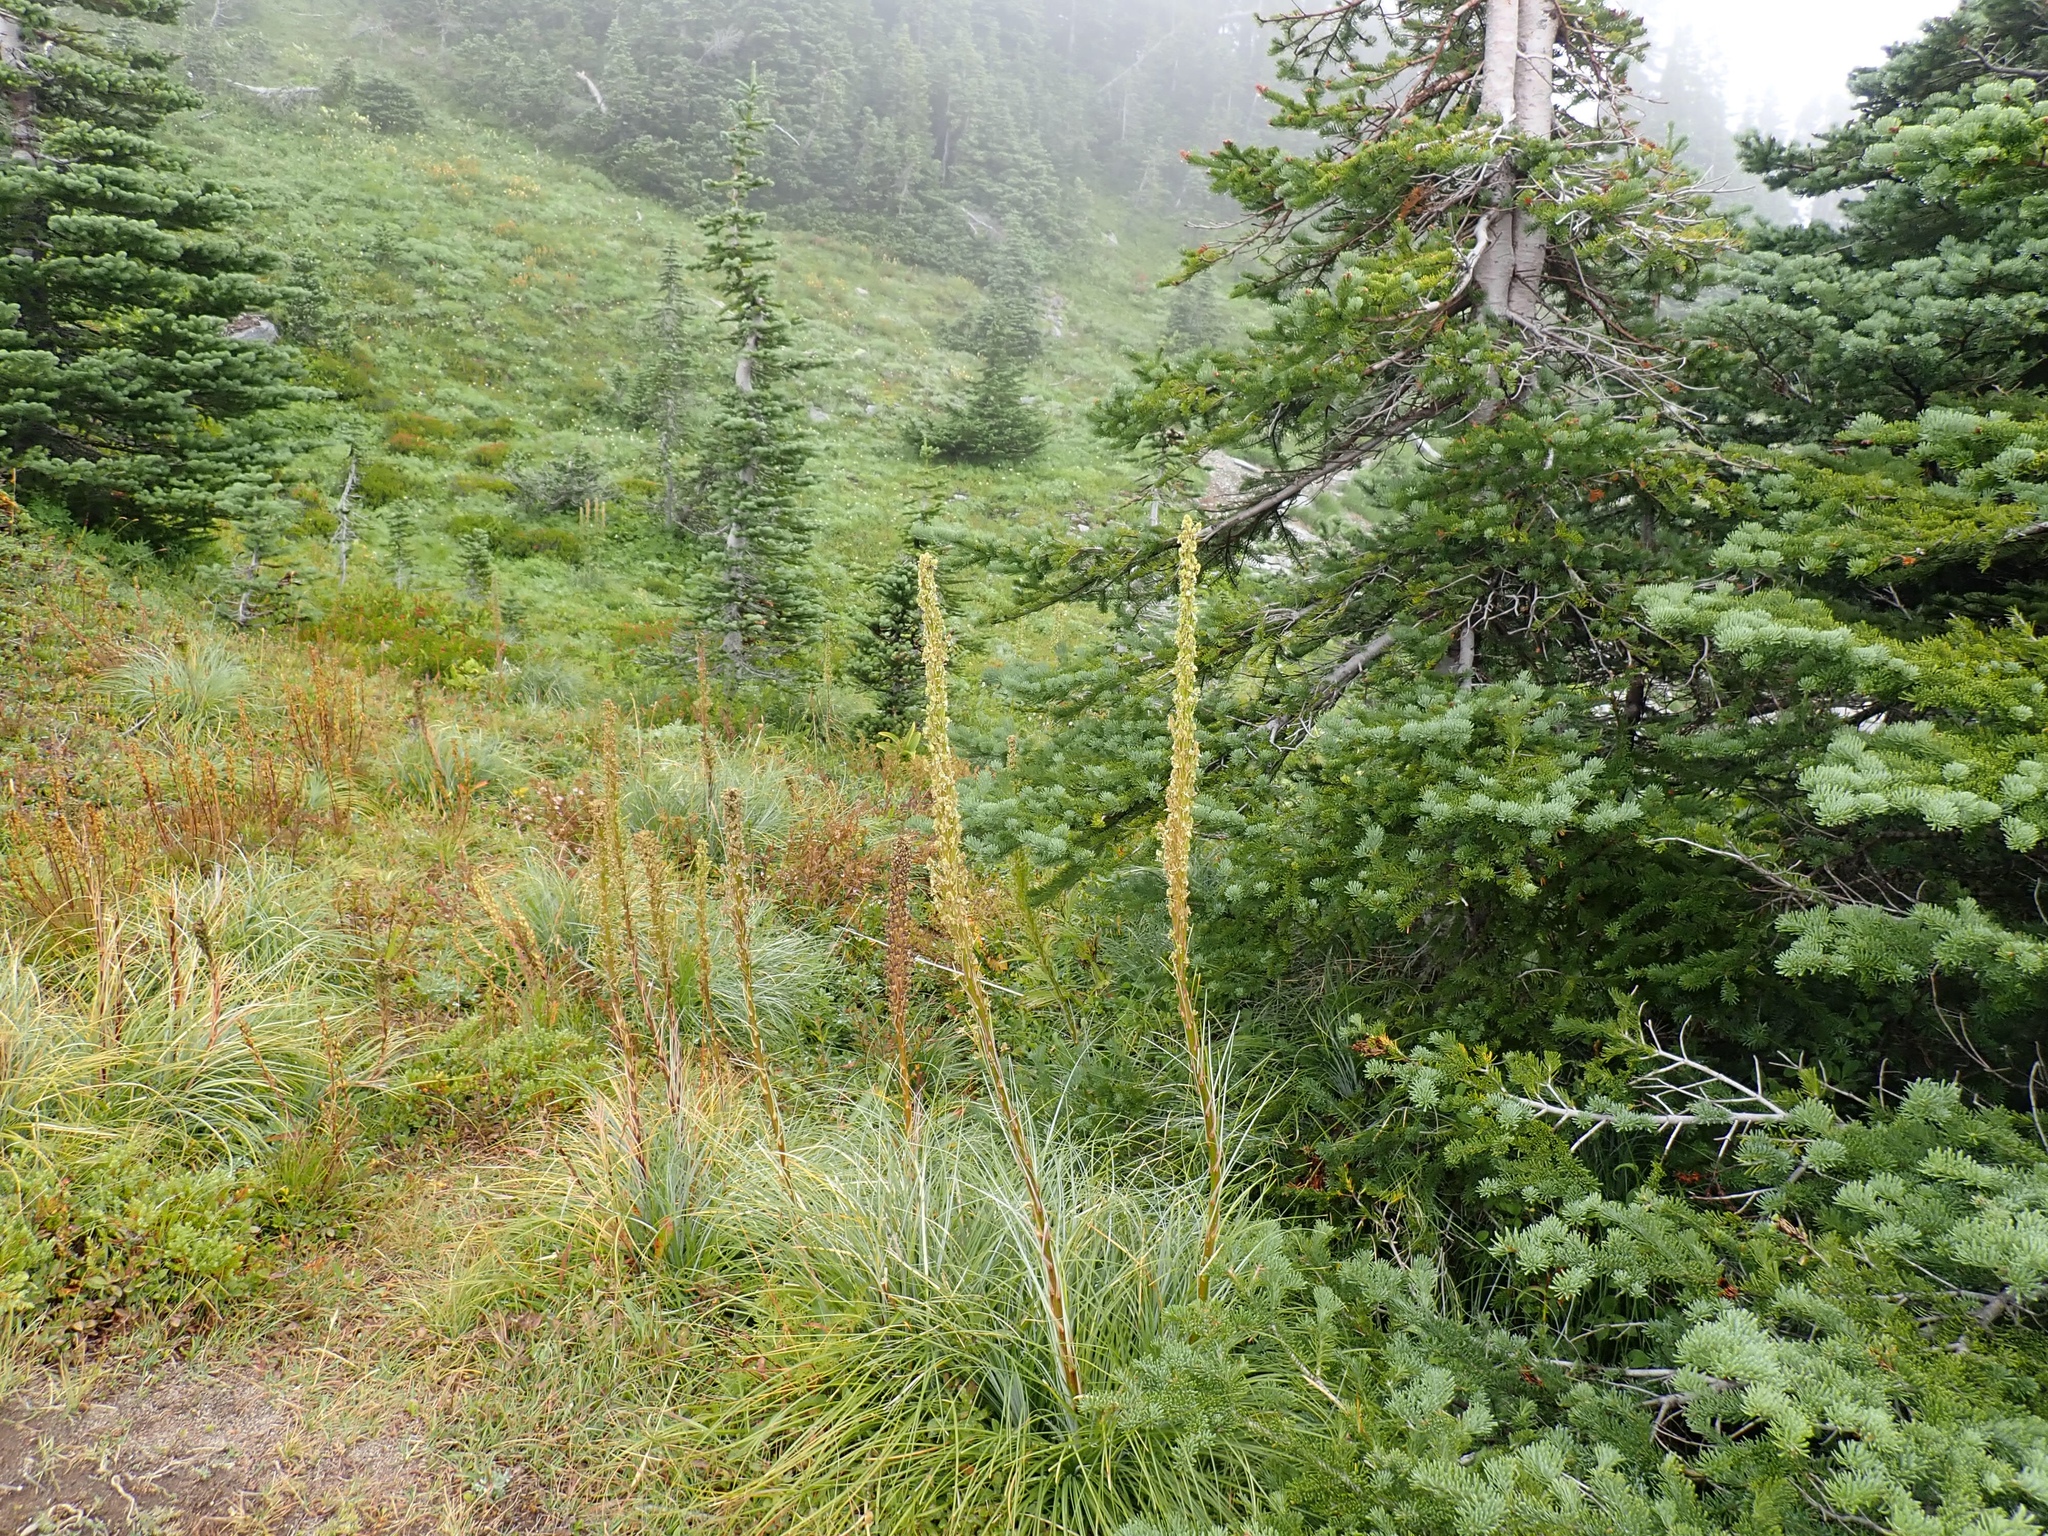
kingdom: Plantae
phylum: Tracheophyta
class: Liliopsida
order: Liliales
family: Melanthiaceae
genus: Xerophyllum
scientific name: Xerophyllum tenax
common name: Bear-grass
